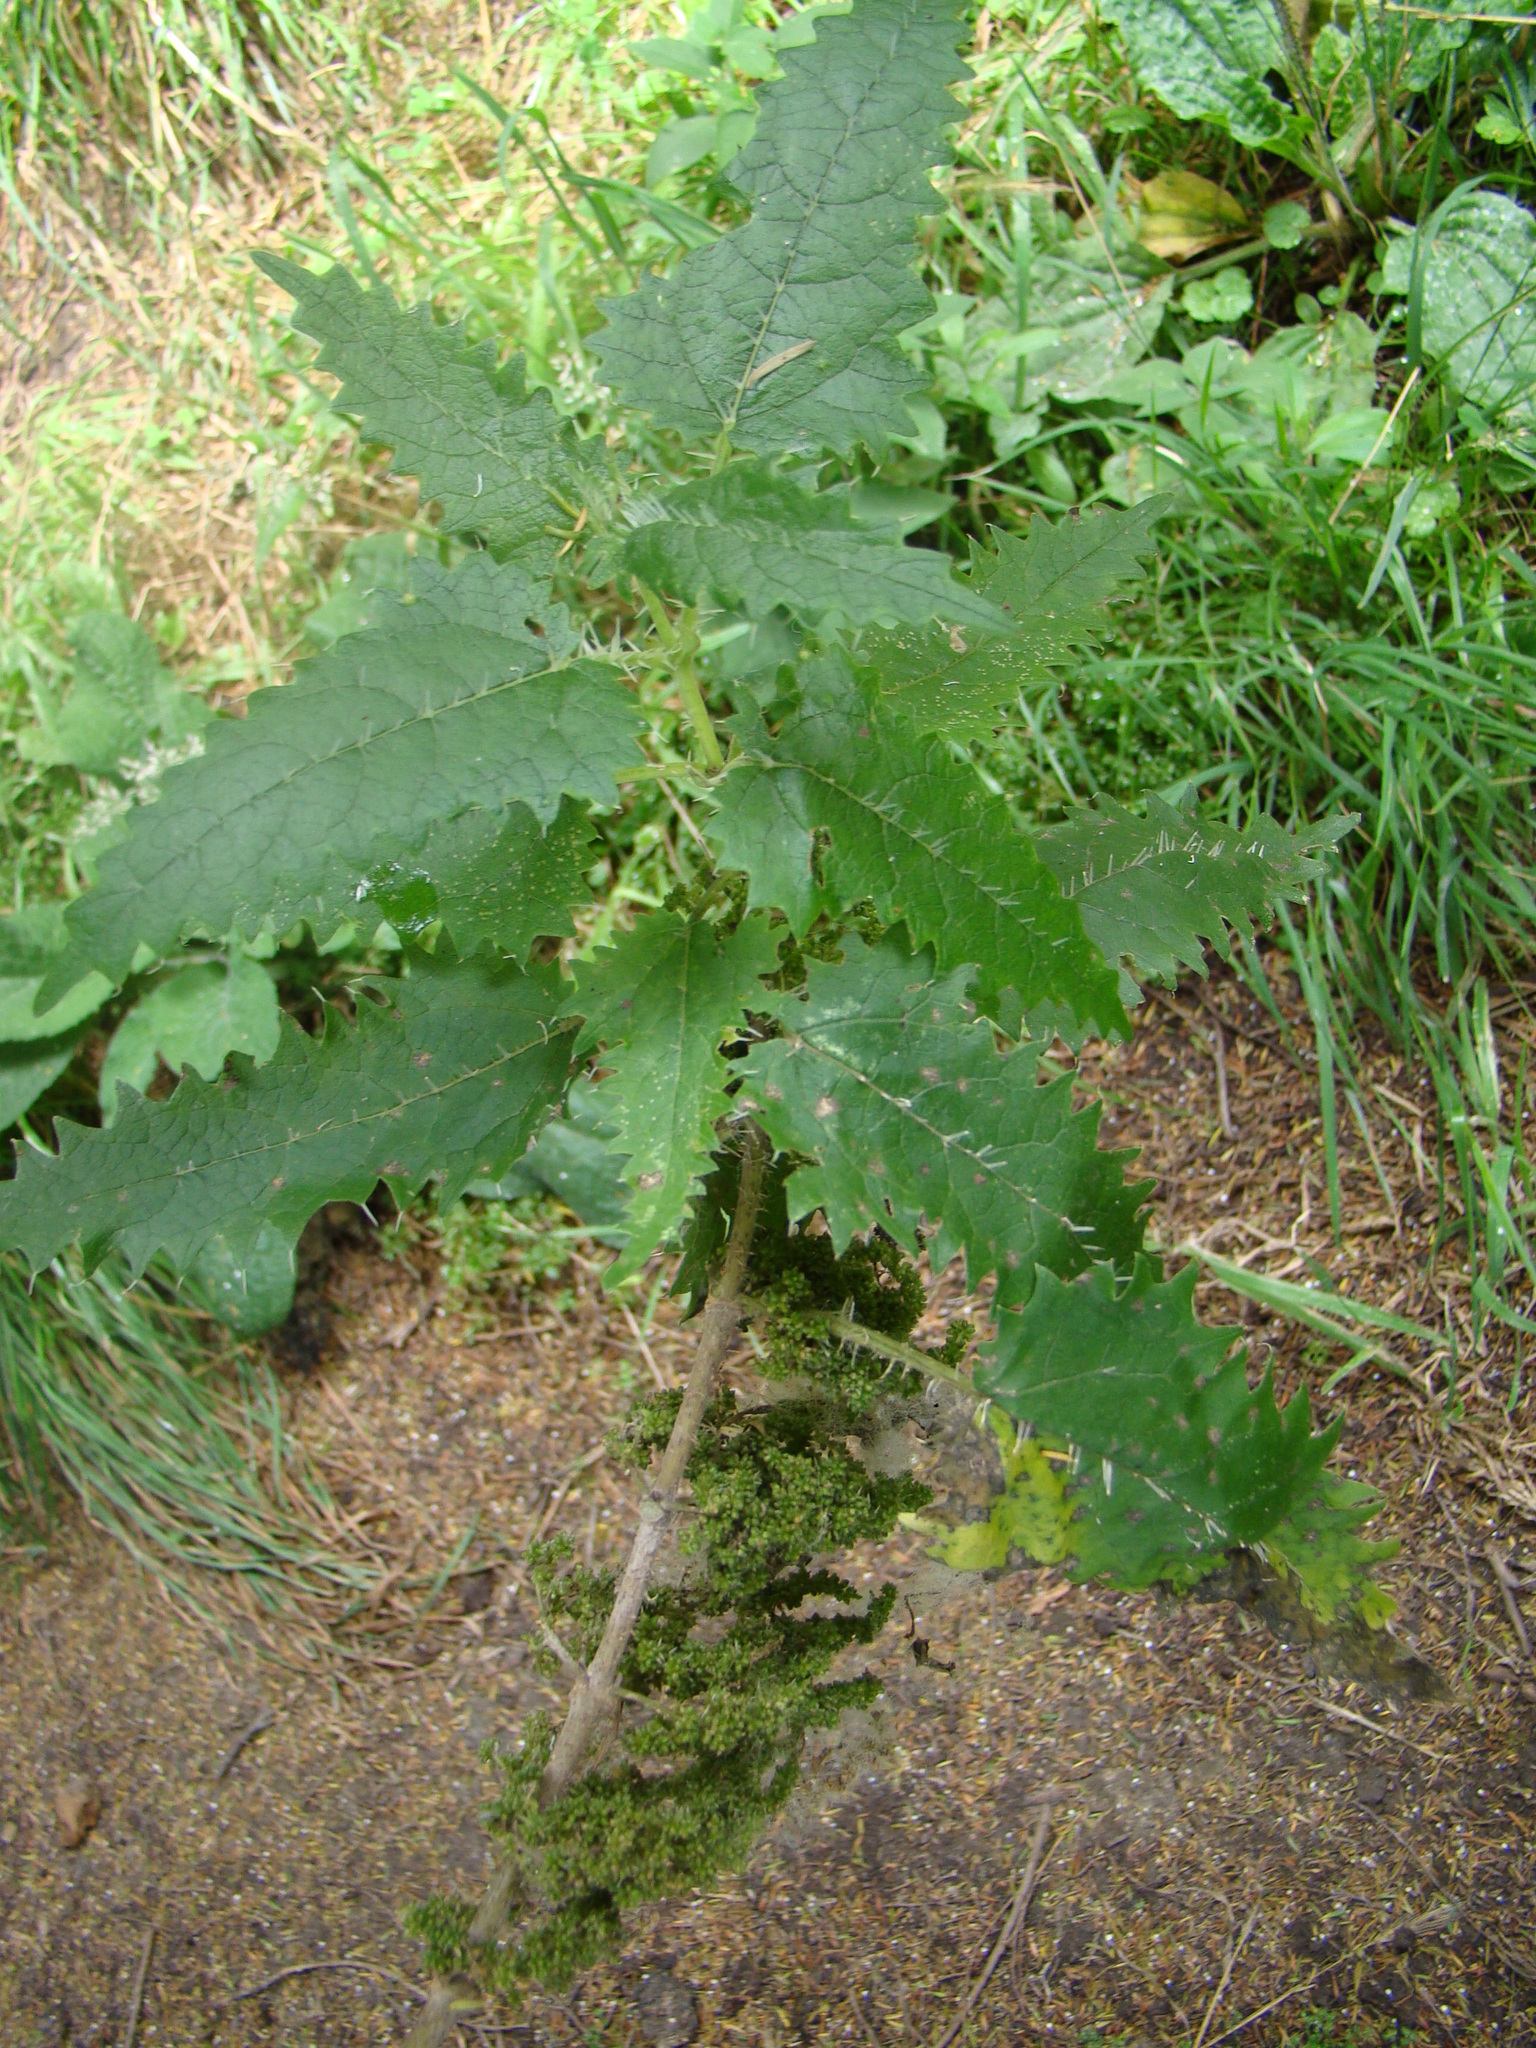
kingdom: Plantae
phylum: Tracheophyta
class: Magnoliopsida
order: Rosales
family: Urticaceae
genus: Urtica
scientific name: Urtica ferox
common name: Tree nettle
